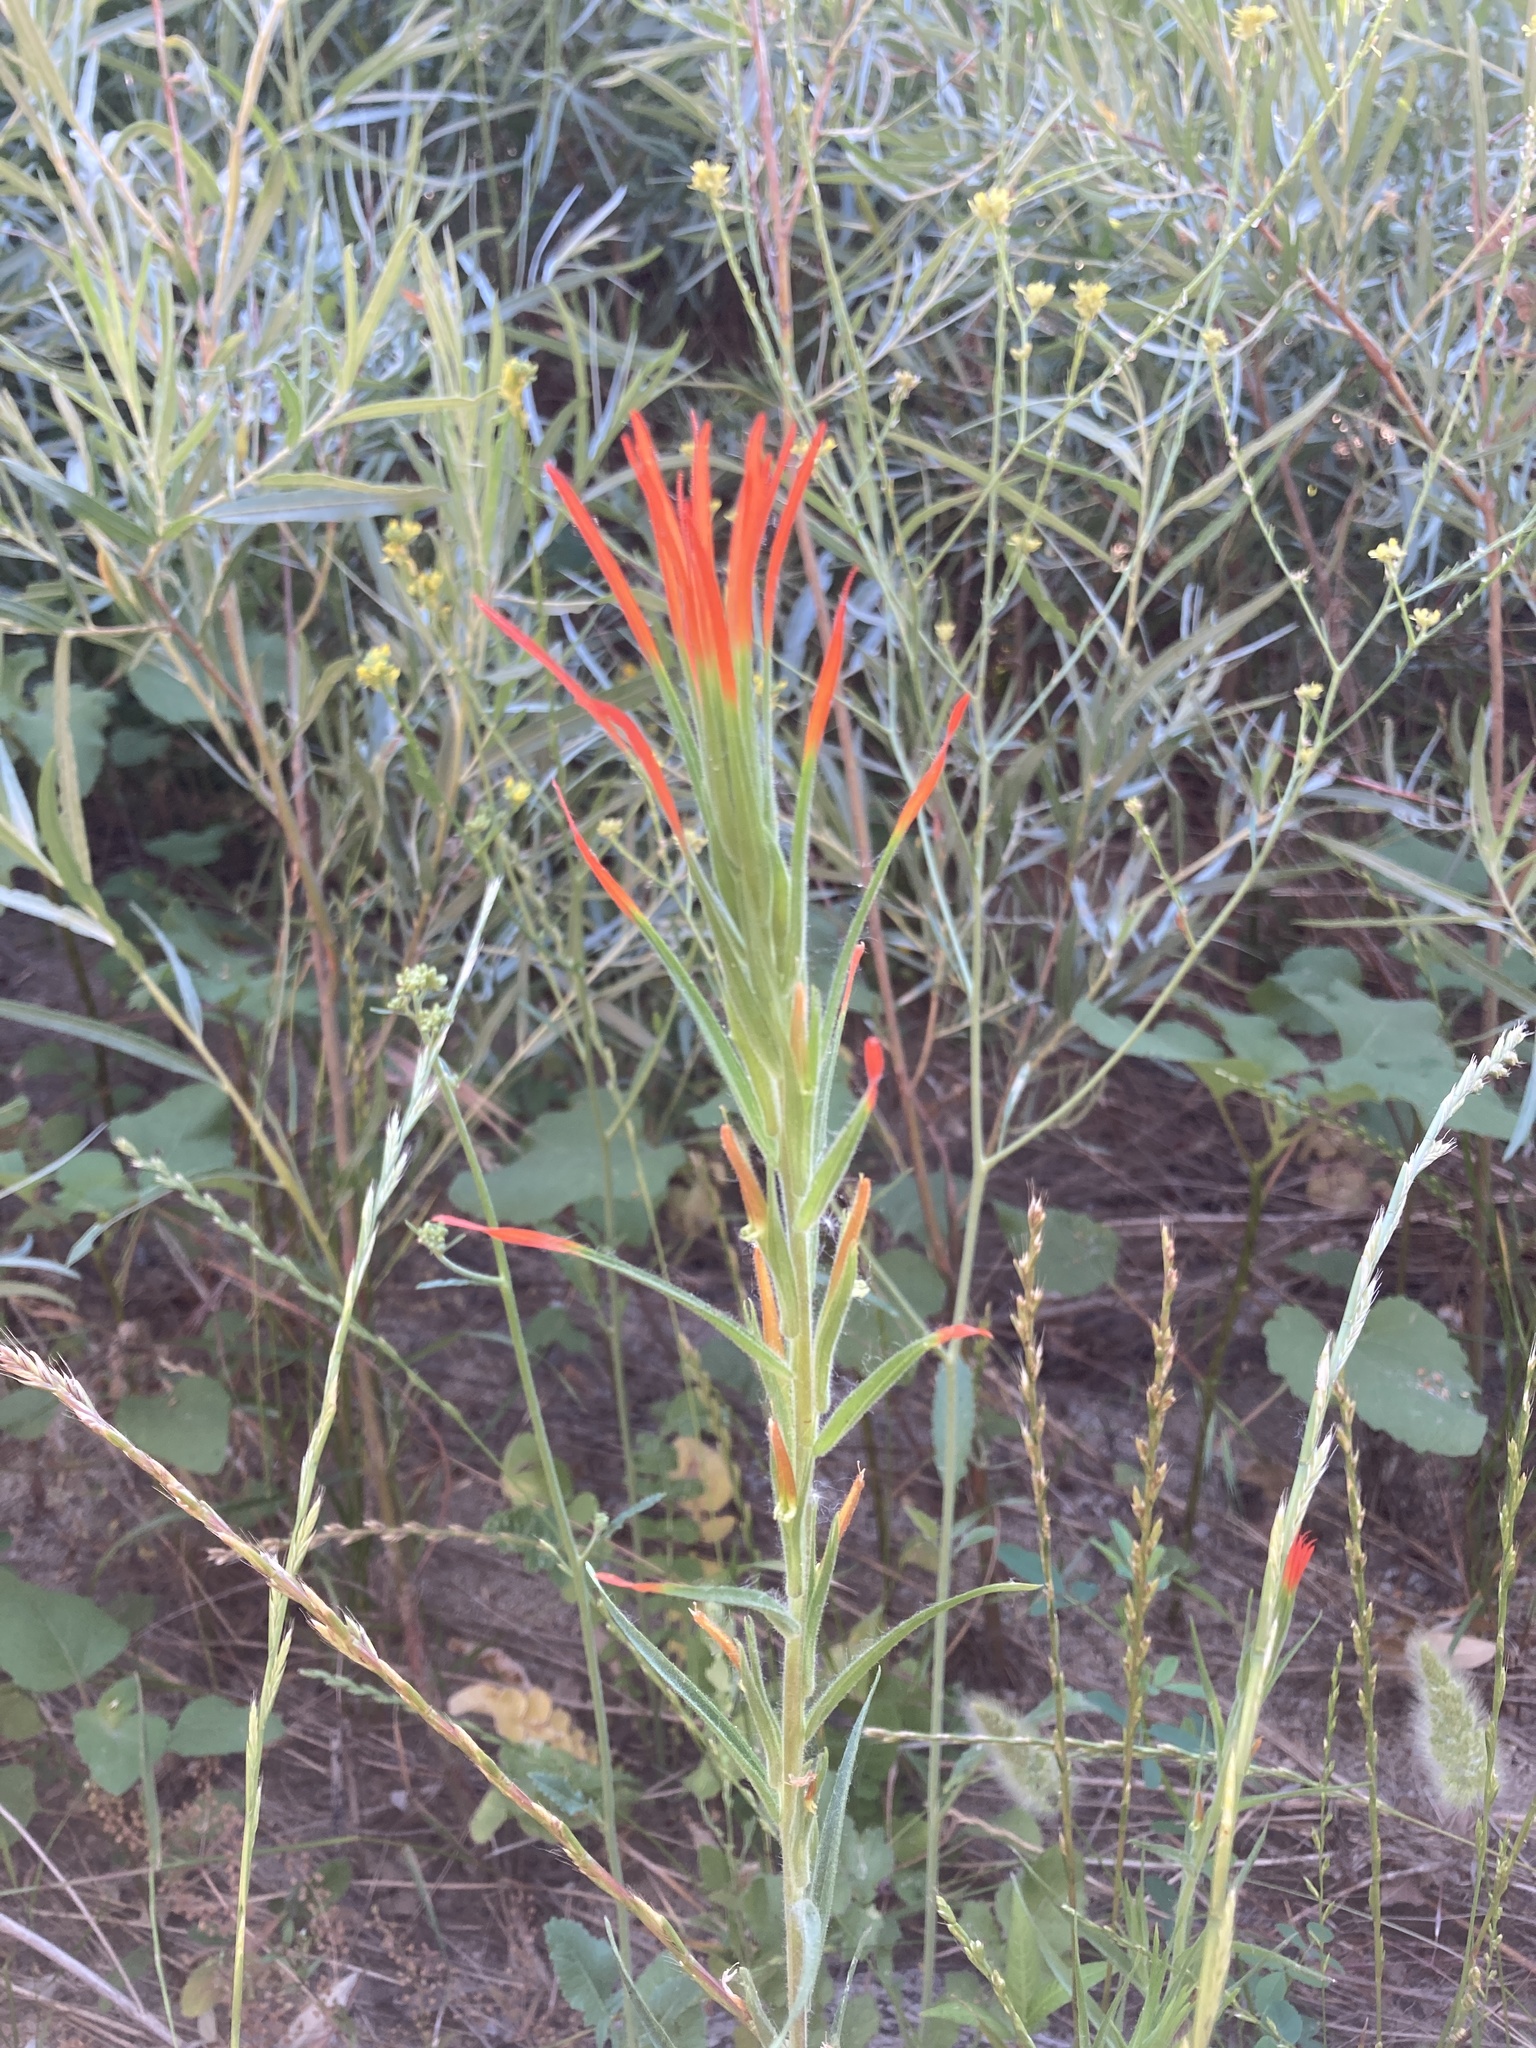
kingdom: Plantae
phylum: Tracheophyta
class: Magnoliopsida
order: Lamiales
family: Orobanchaceae
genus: Castilleja
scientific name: Castilleja minor
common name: Seep paintbrush
